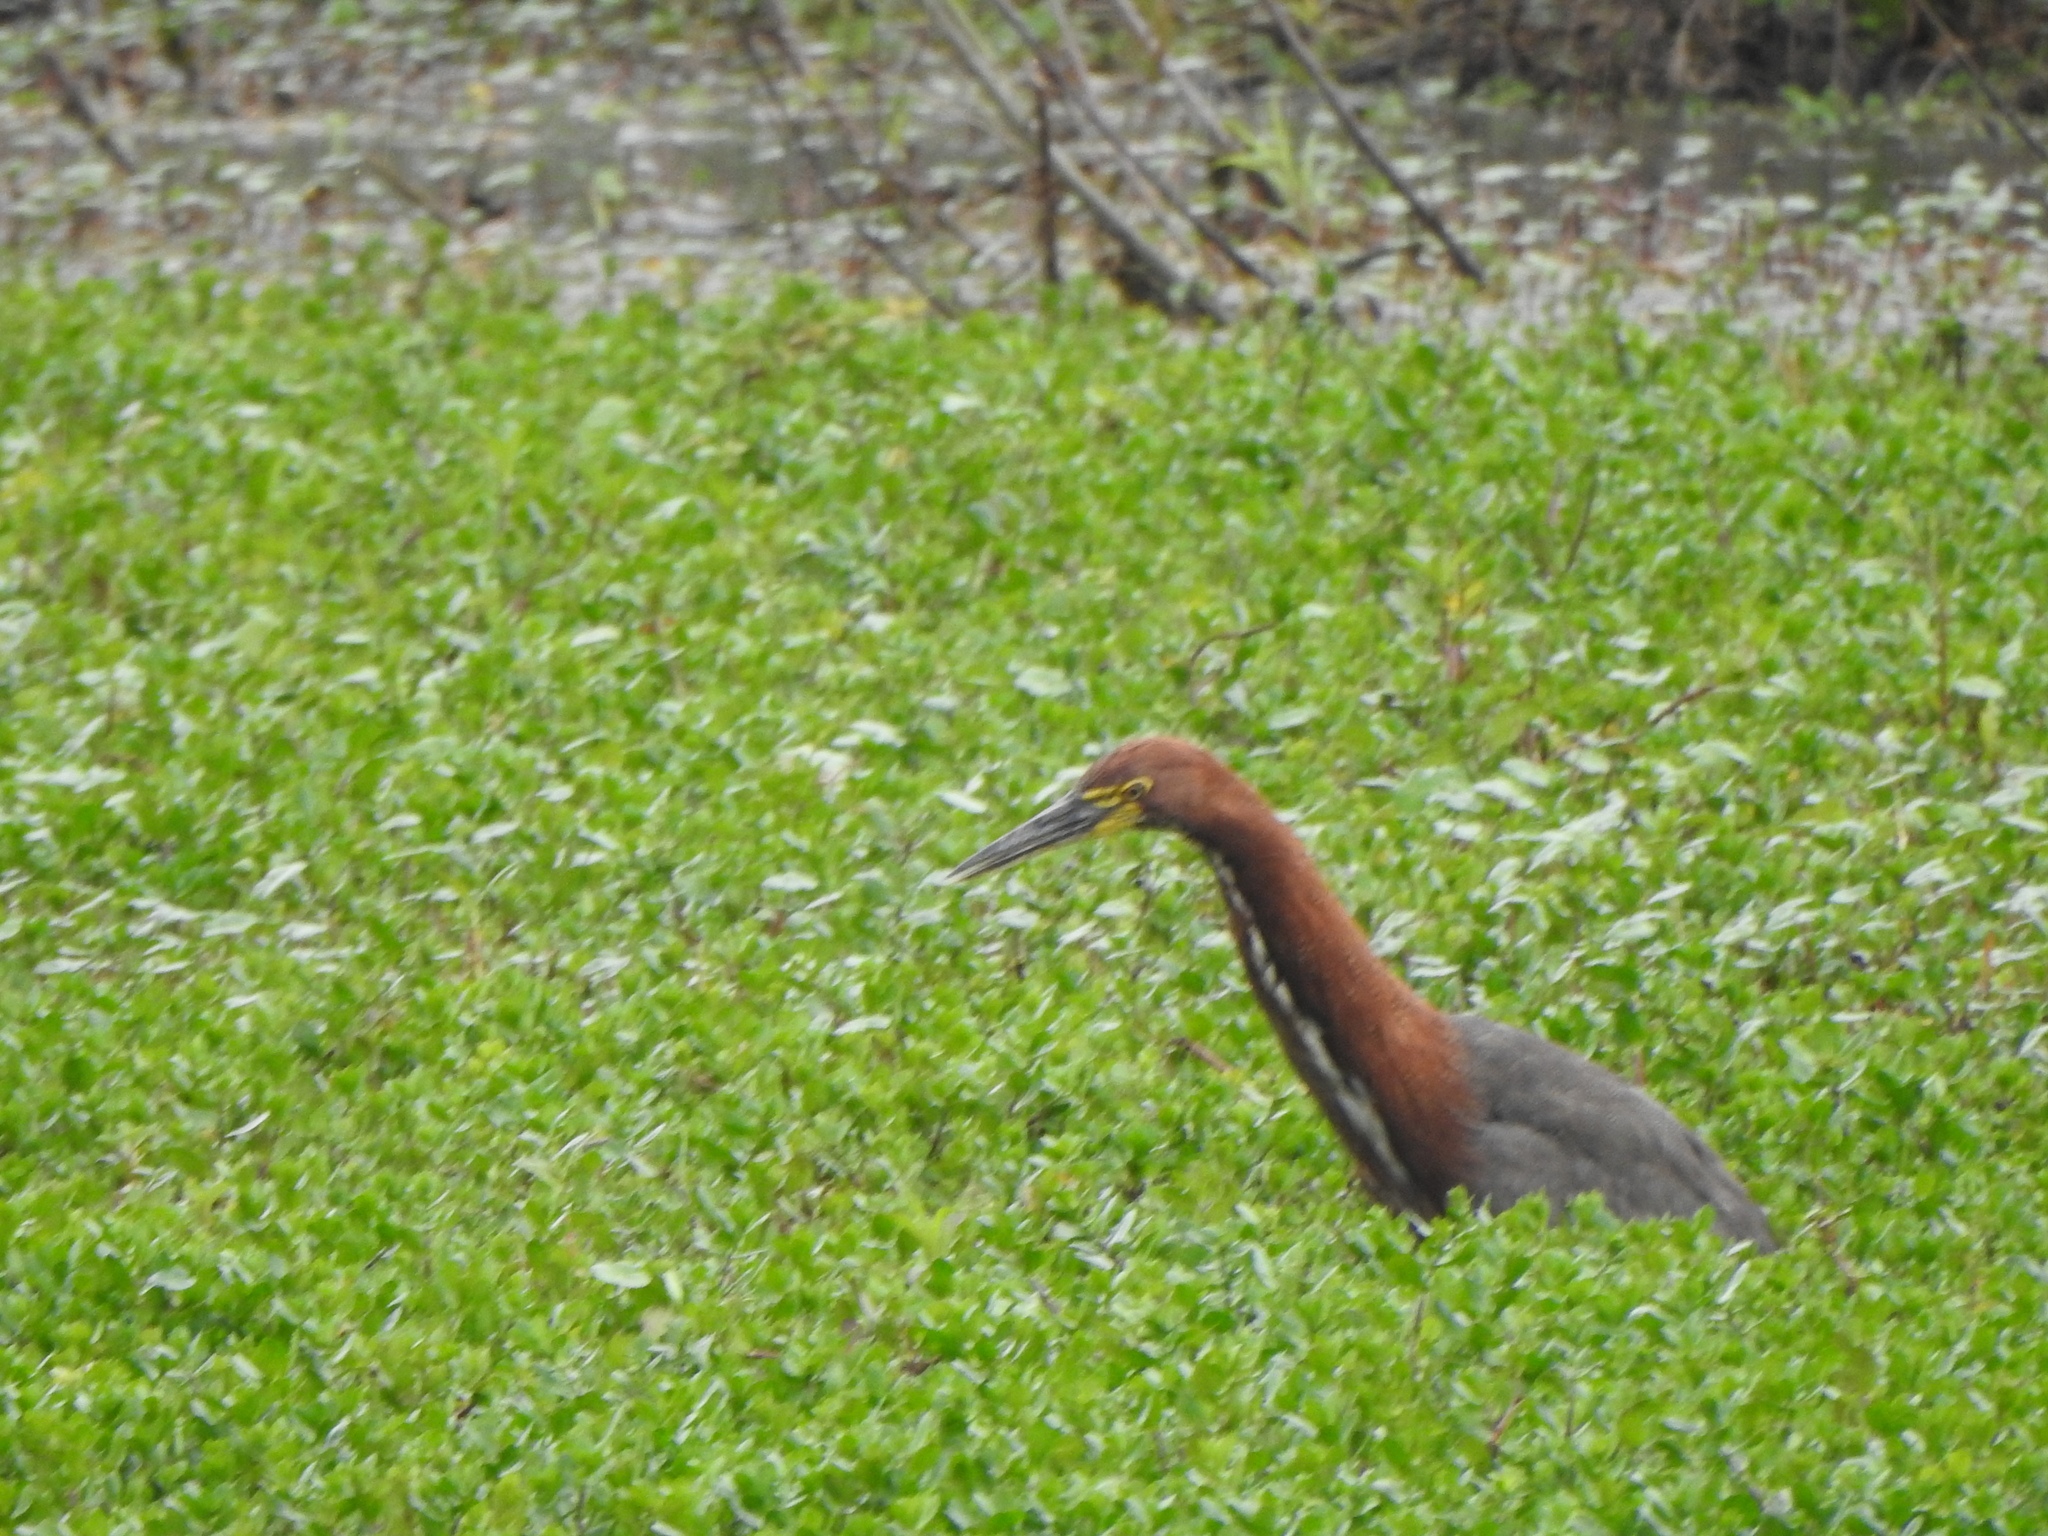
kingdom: Animalia
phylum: Chordata
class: Aves
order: Pelecaniformes
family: Ardeidae
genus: Tigrisoma
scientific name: Tigrisoma lineatum
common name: Rufescent tiger-heron
